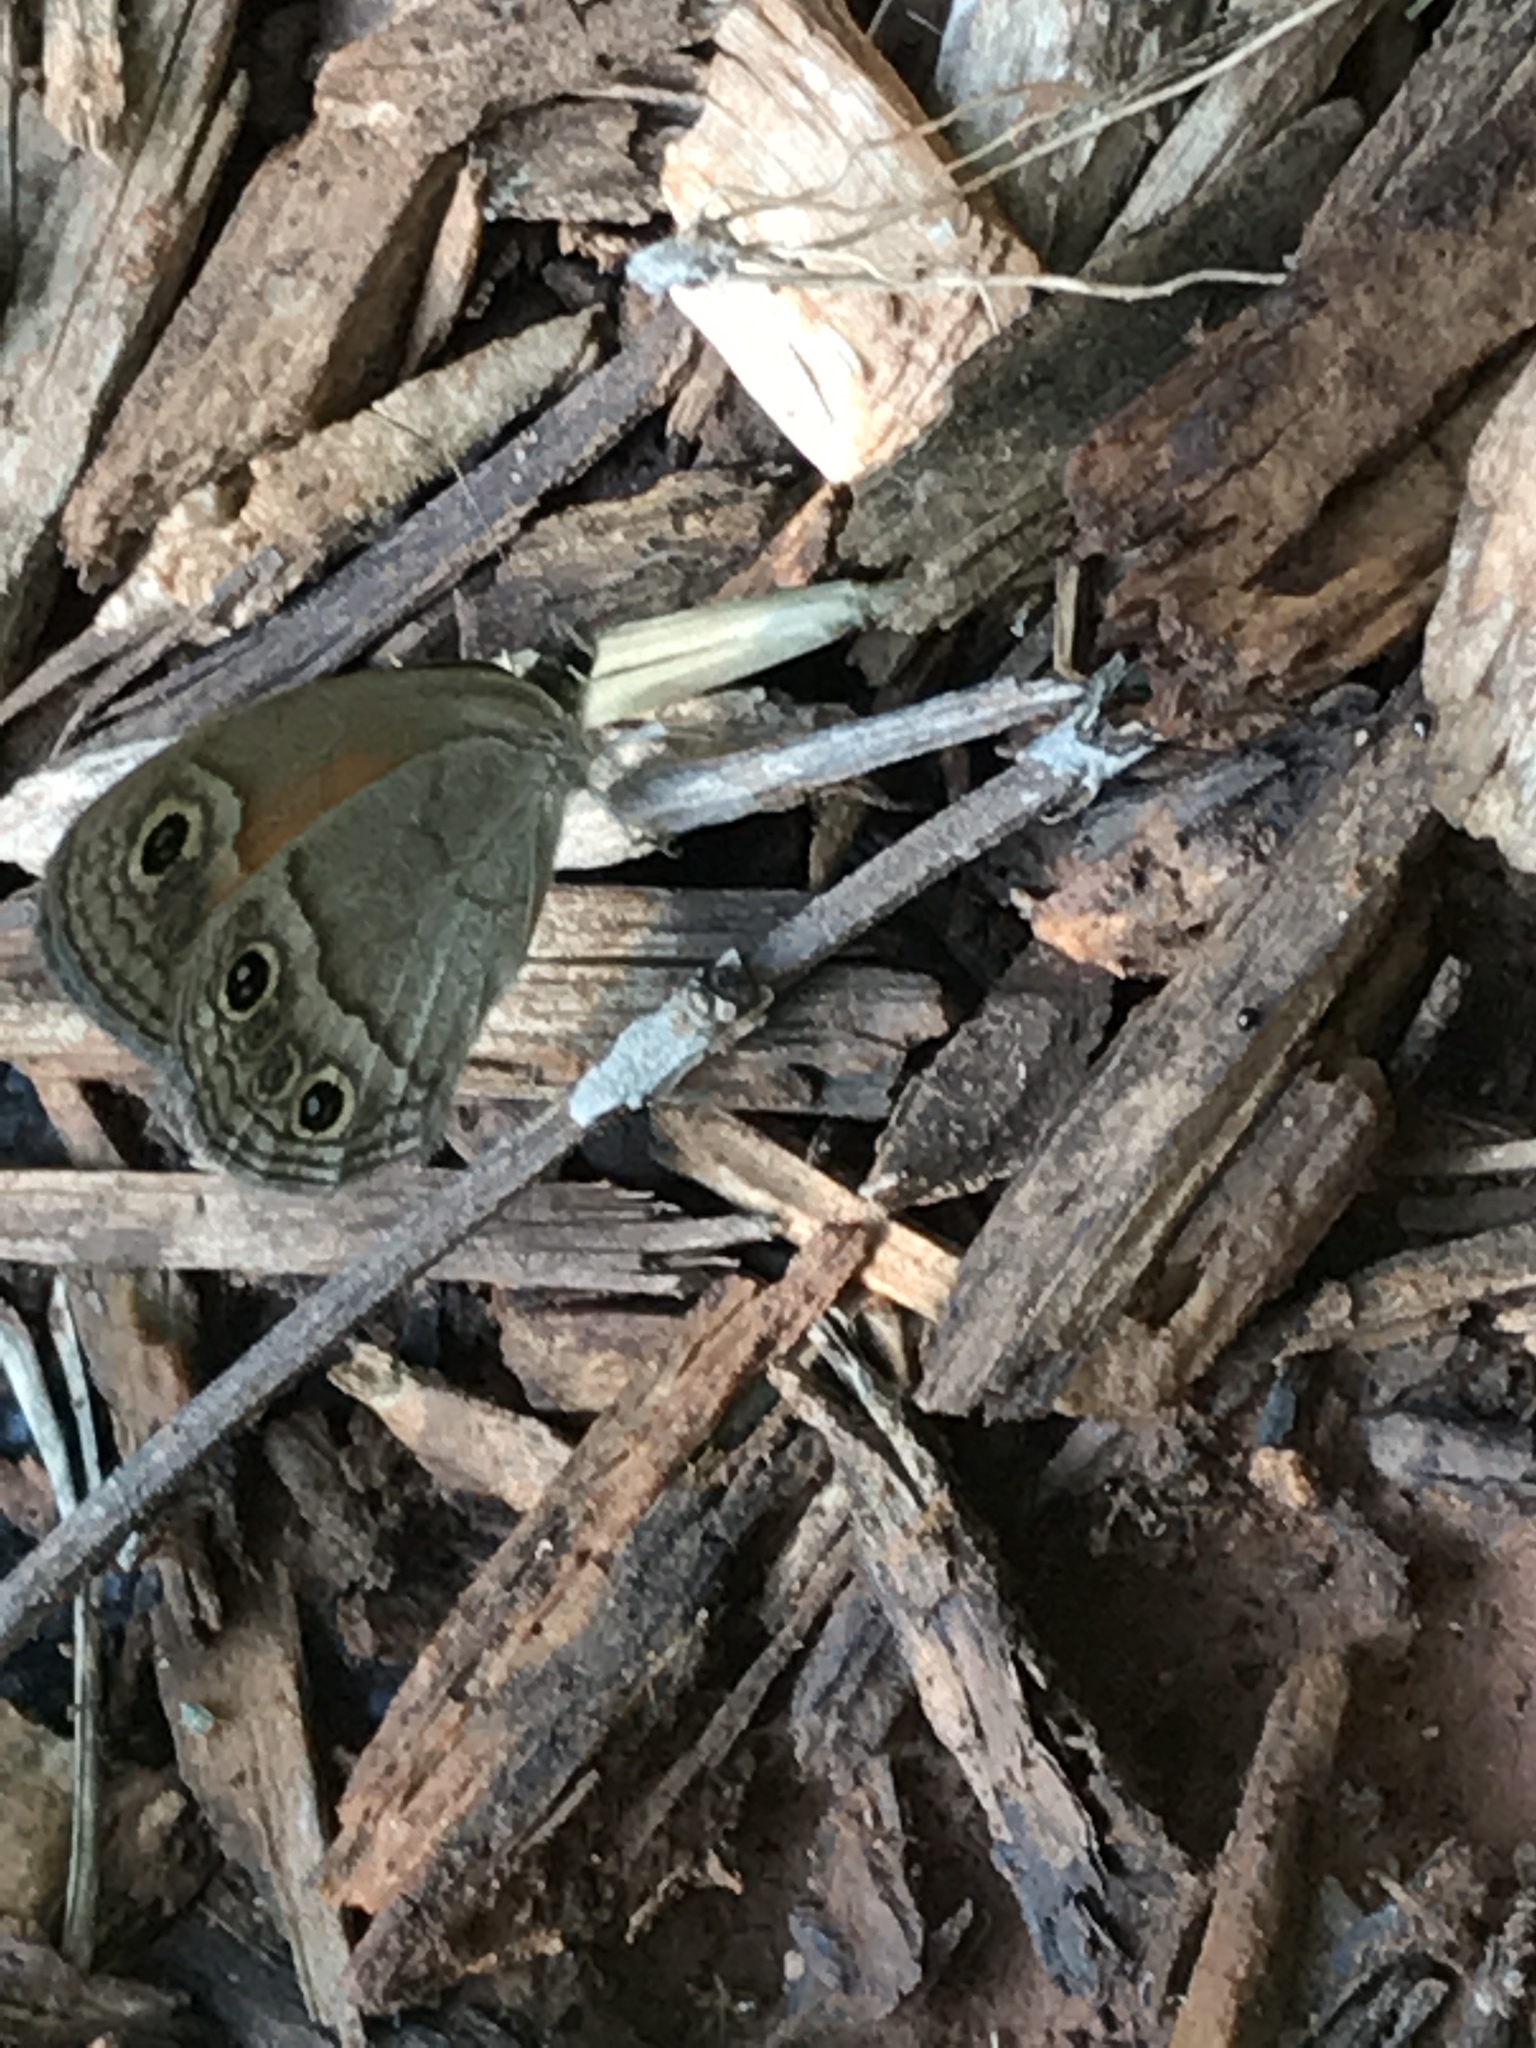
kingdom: Animalia
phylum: Arthropoda
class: Insecta
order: Lepidoptera
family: Nymphalidae
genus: Euptychia
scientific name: Euptychia Cissia rubricata
